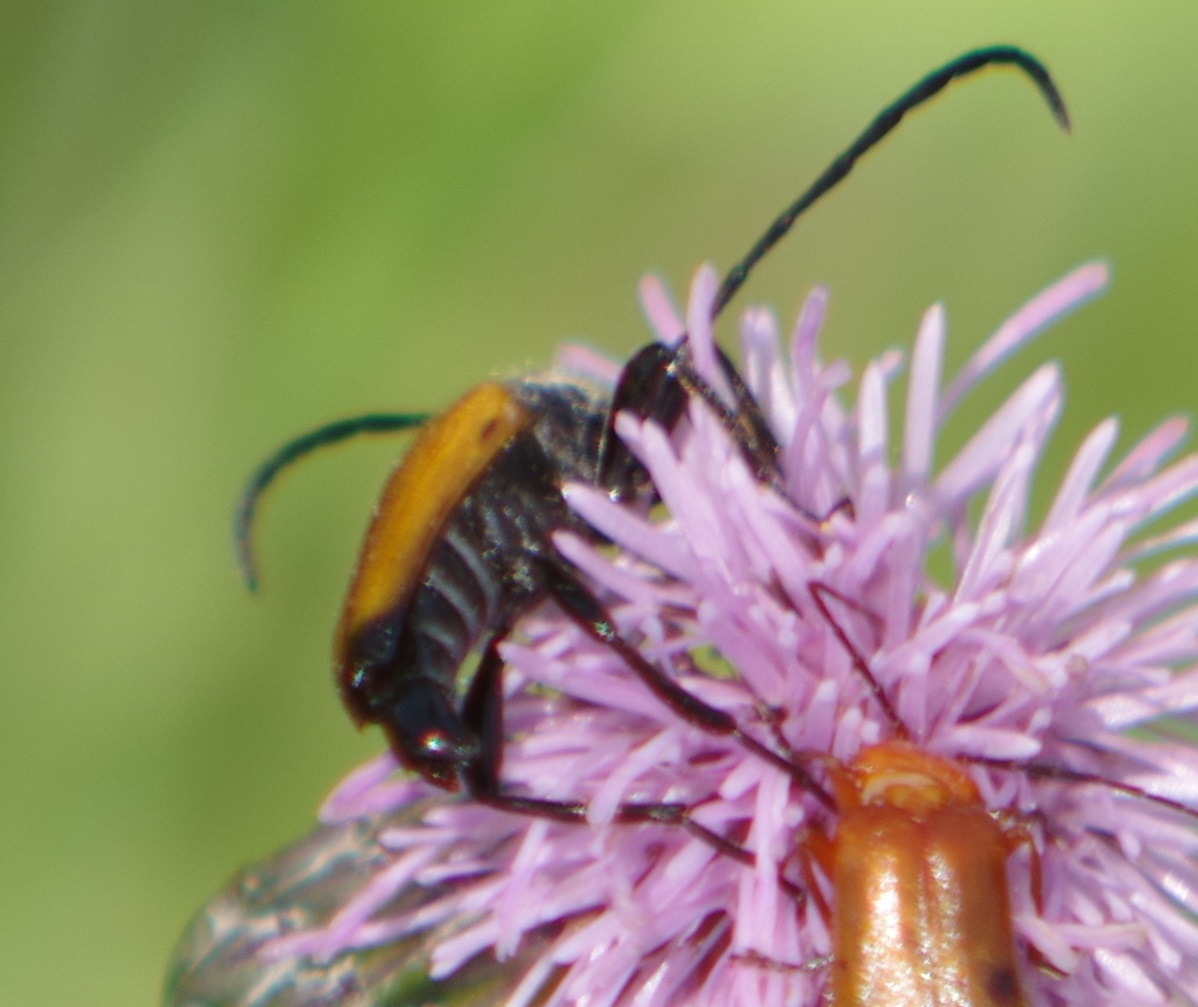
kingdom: Animalia
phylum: Arthropoda
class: Insecta
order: Coleoptera
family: Cerambycidae
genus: Paracorymbia
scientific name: Paracorymbia fulva
